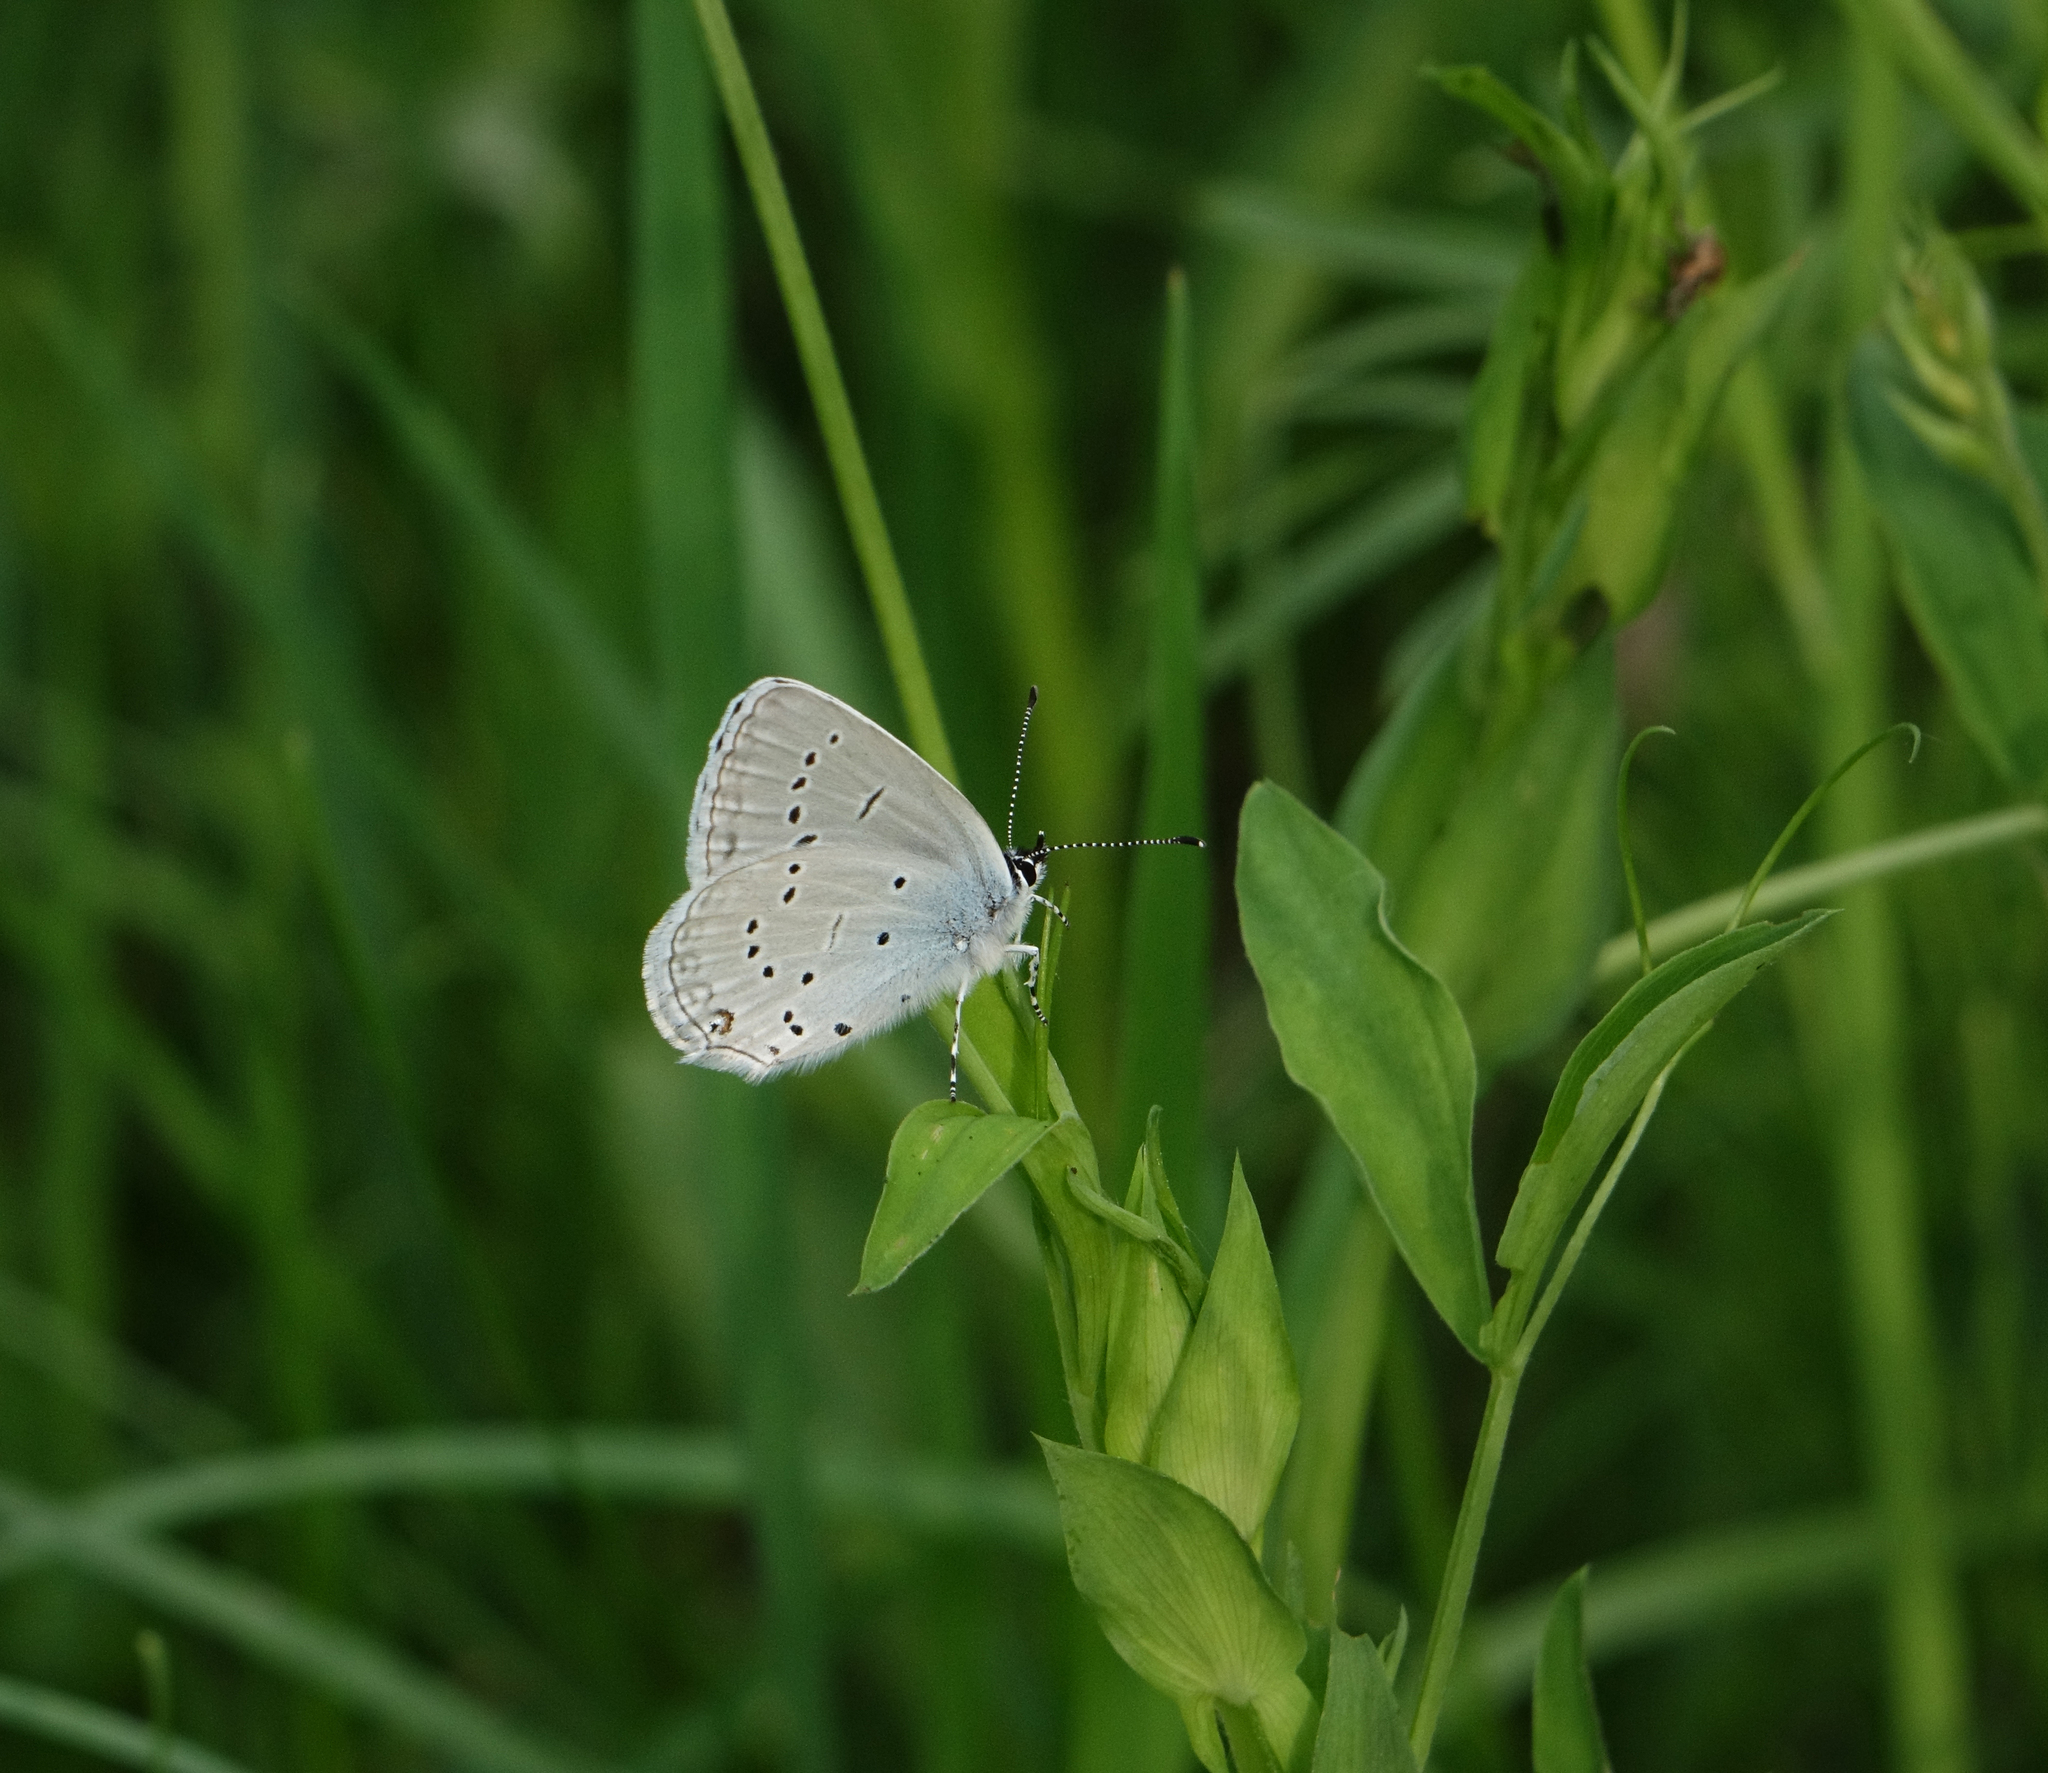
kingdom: Animalia
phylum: Arthropoda
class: Insecta
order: Lepidoptera
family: Lycaenidae
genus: Elkalyce
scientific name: Elkalyce alcetas
